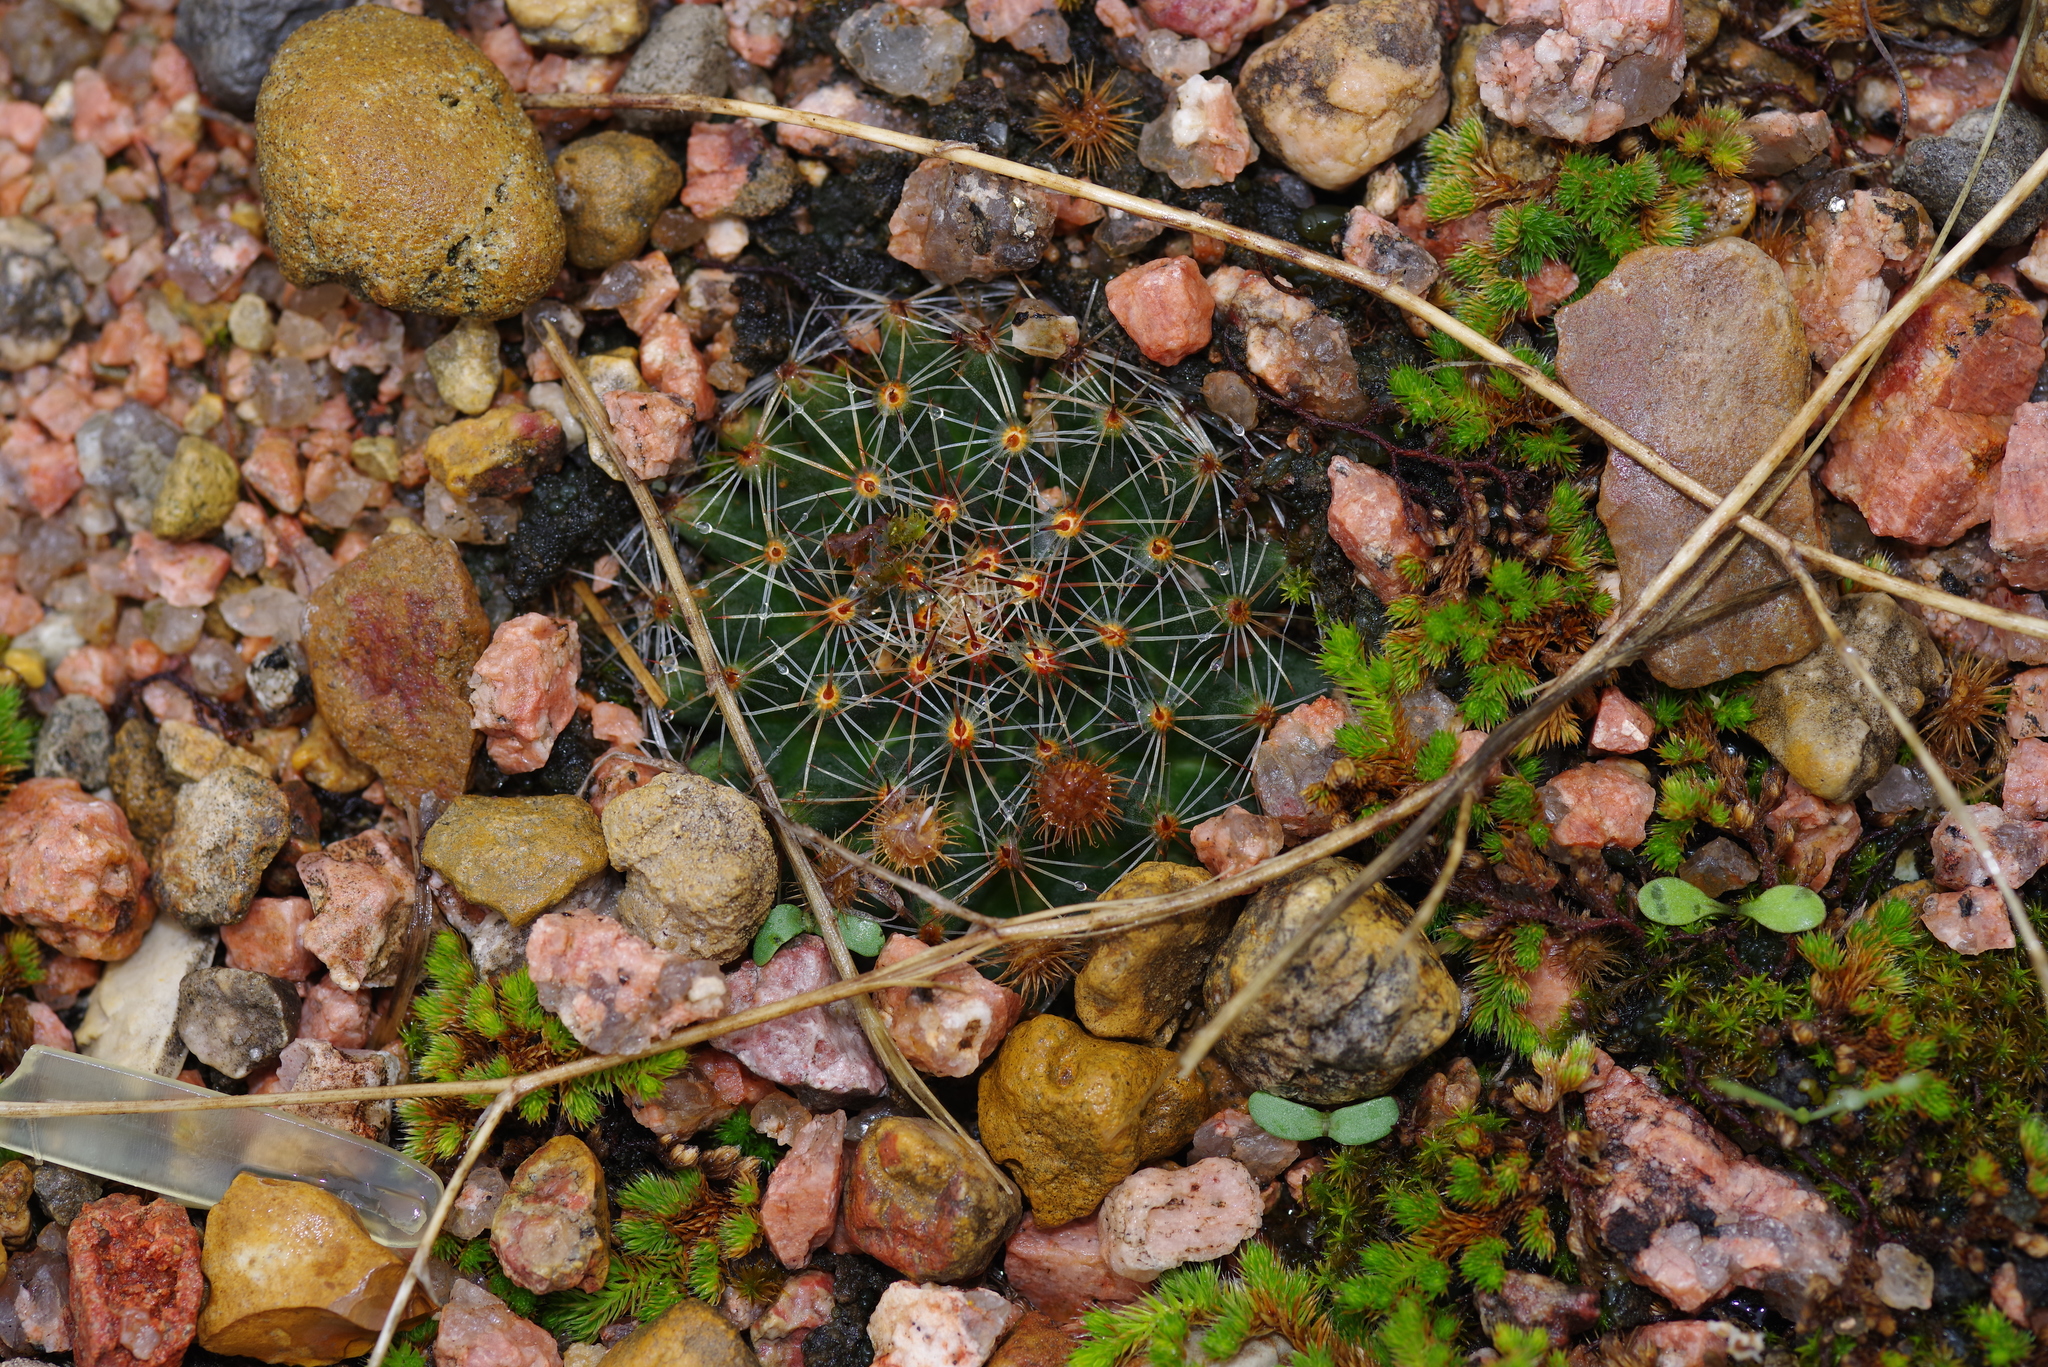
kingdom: Plantae
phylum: Tracheophyta
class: Magnoliopsida
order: Caryophyllales
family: Cactaceae
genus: Mammillaria
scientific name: Mammillaria heyderi
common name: Little nipple cactus
